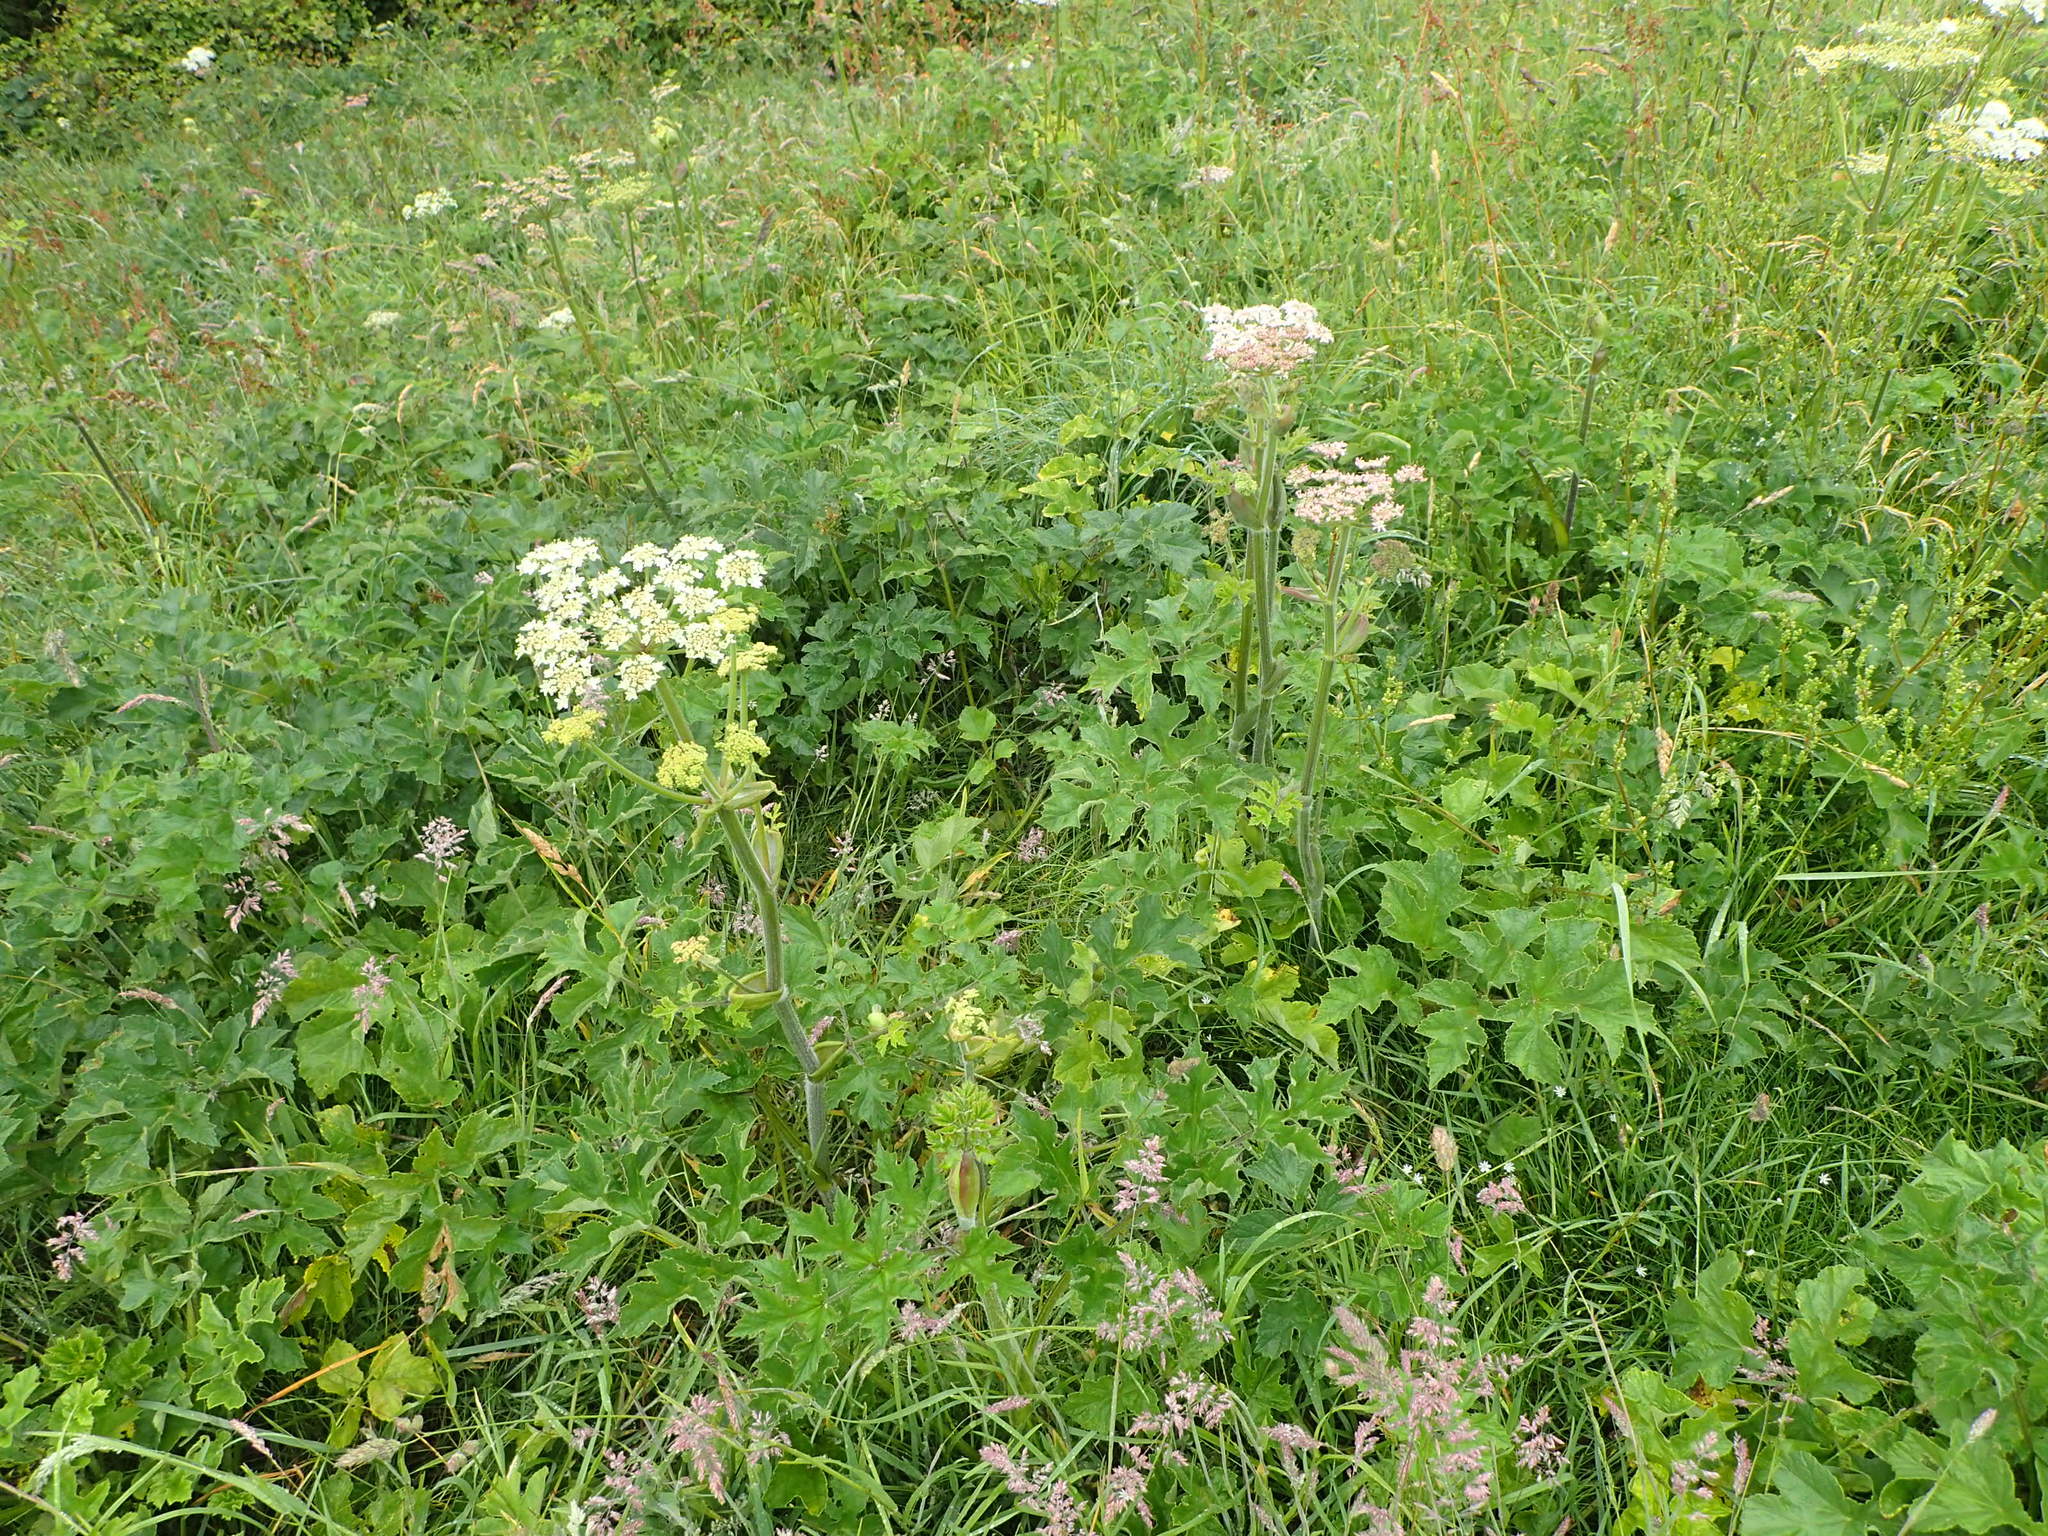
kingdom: Plantae
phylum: Tracheophyta
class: Magnoliopsida
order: Apiales
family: Apiaceae
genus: Heracleum
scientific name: Heracleum sphondylium
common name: Hogweed
